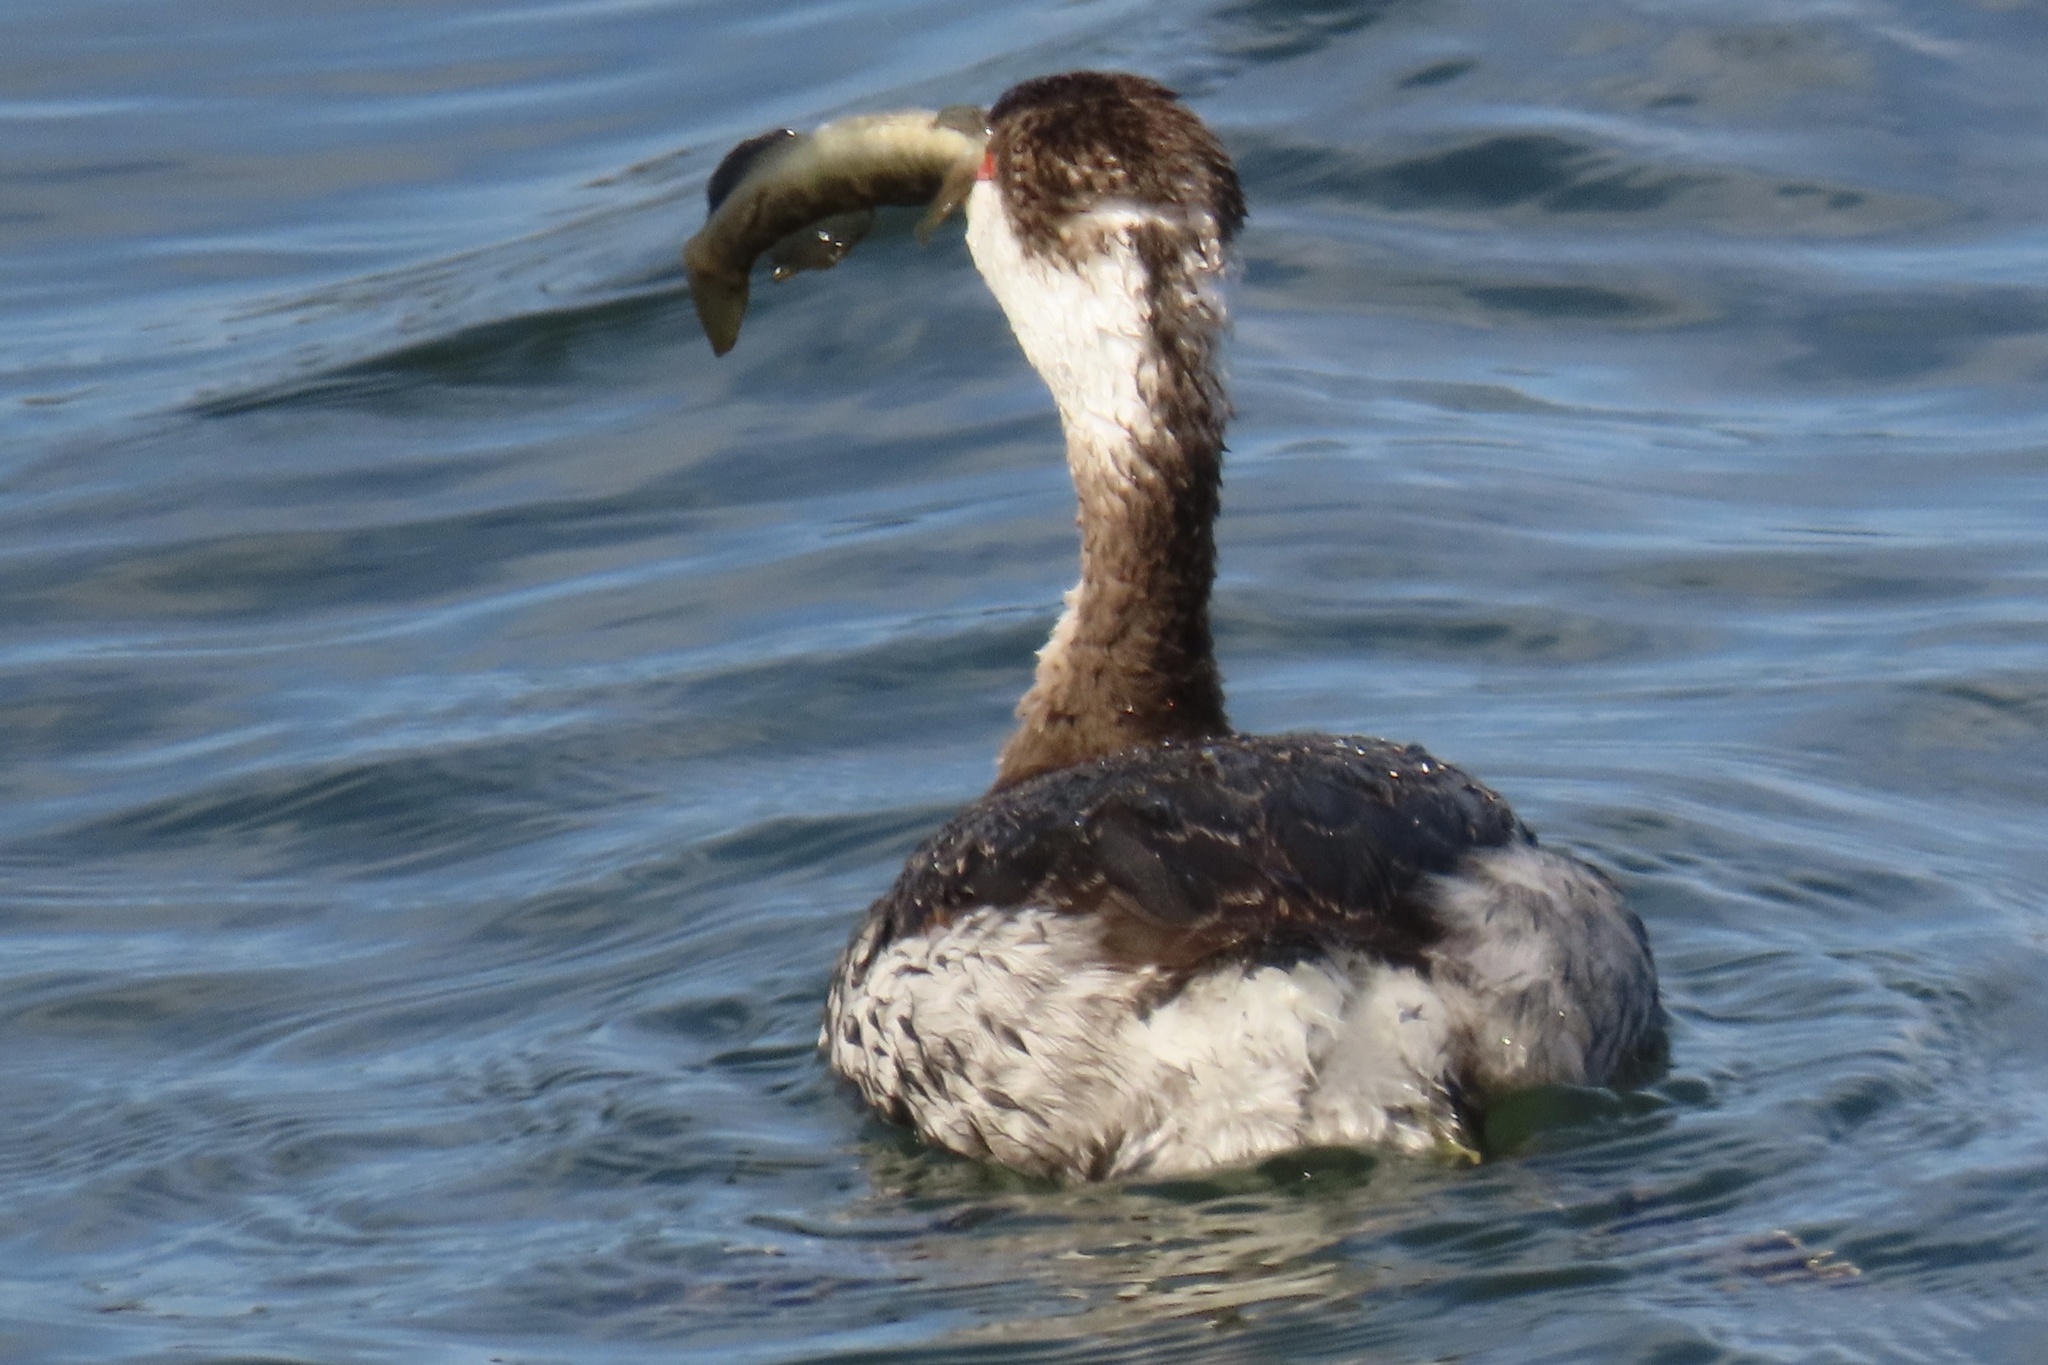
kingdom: Animalia
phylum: Chordata
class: Aves
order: Podicipediformes
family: Podicipedidae
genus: Podiceps
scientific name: Podiceps auritus
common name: Horned grebe
